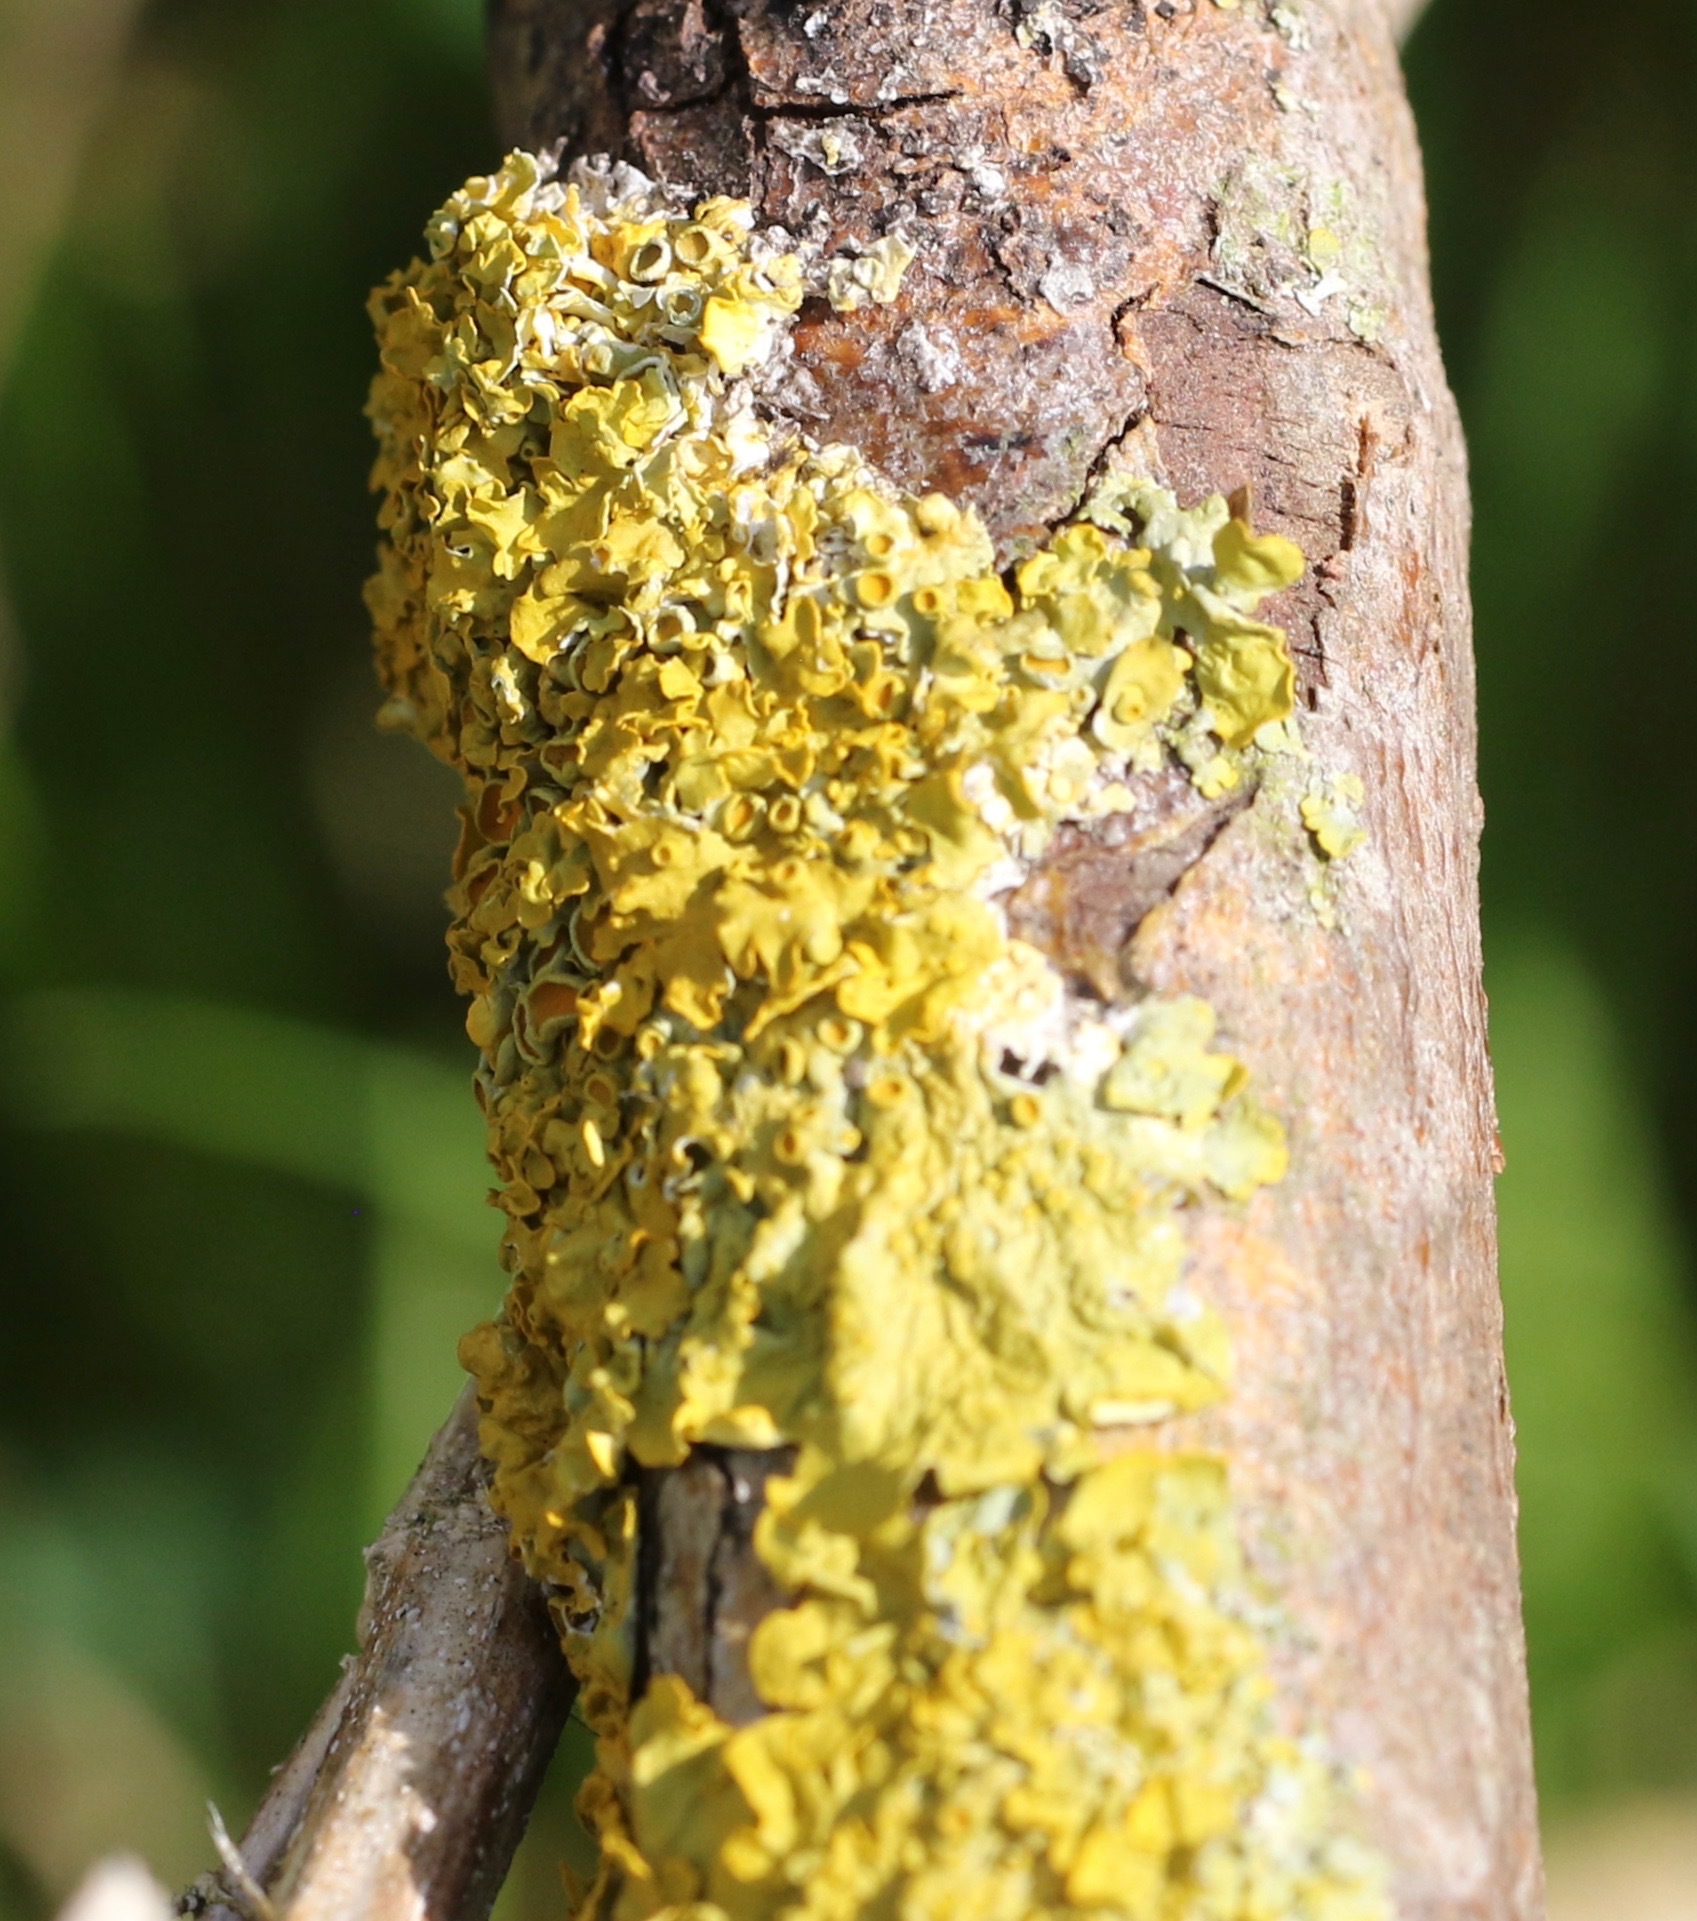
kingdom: Fungi
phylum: Ascomycota
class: Lecanoromycetes
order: Teloschistales
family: Teloschistaceae
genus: Xanthoria
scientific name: Xanthoria parietina
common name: Common orange lichen
